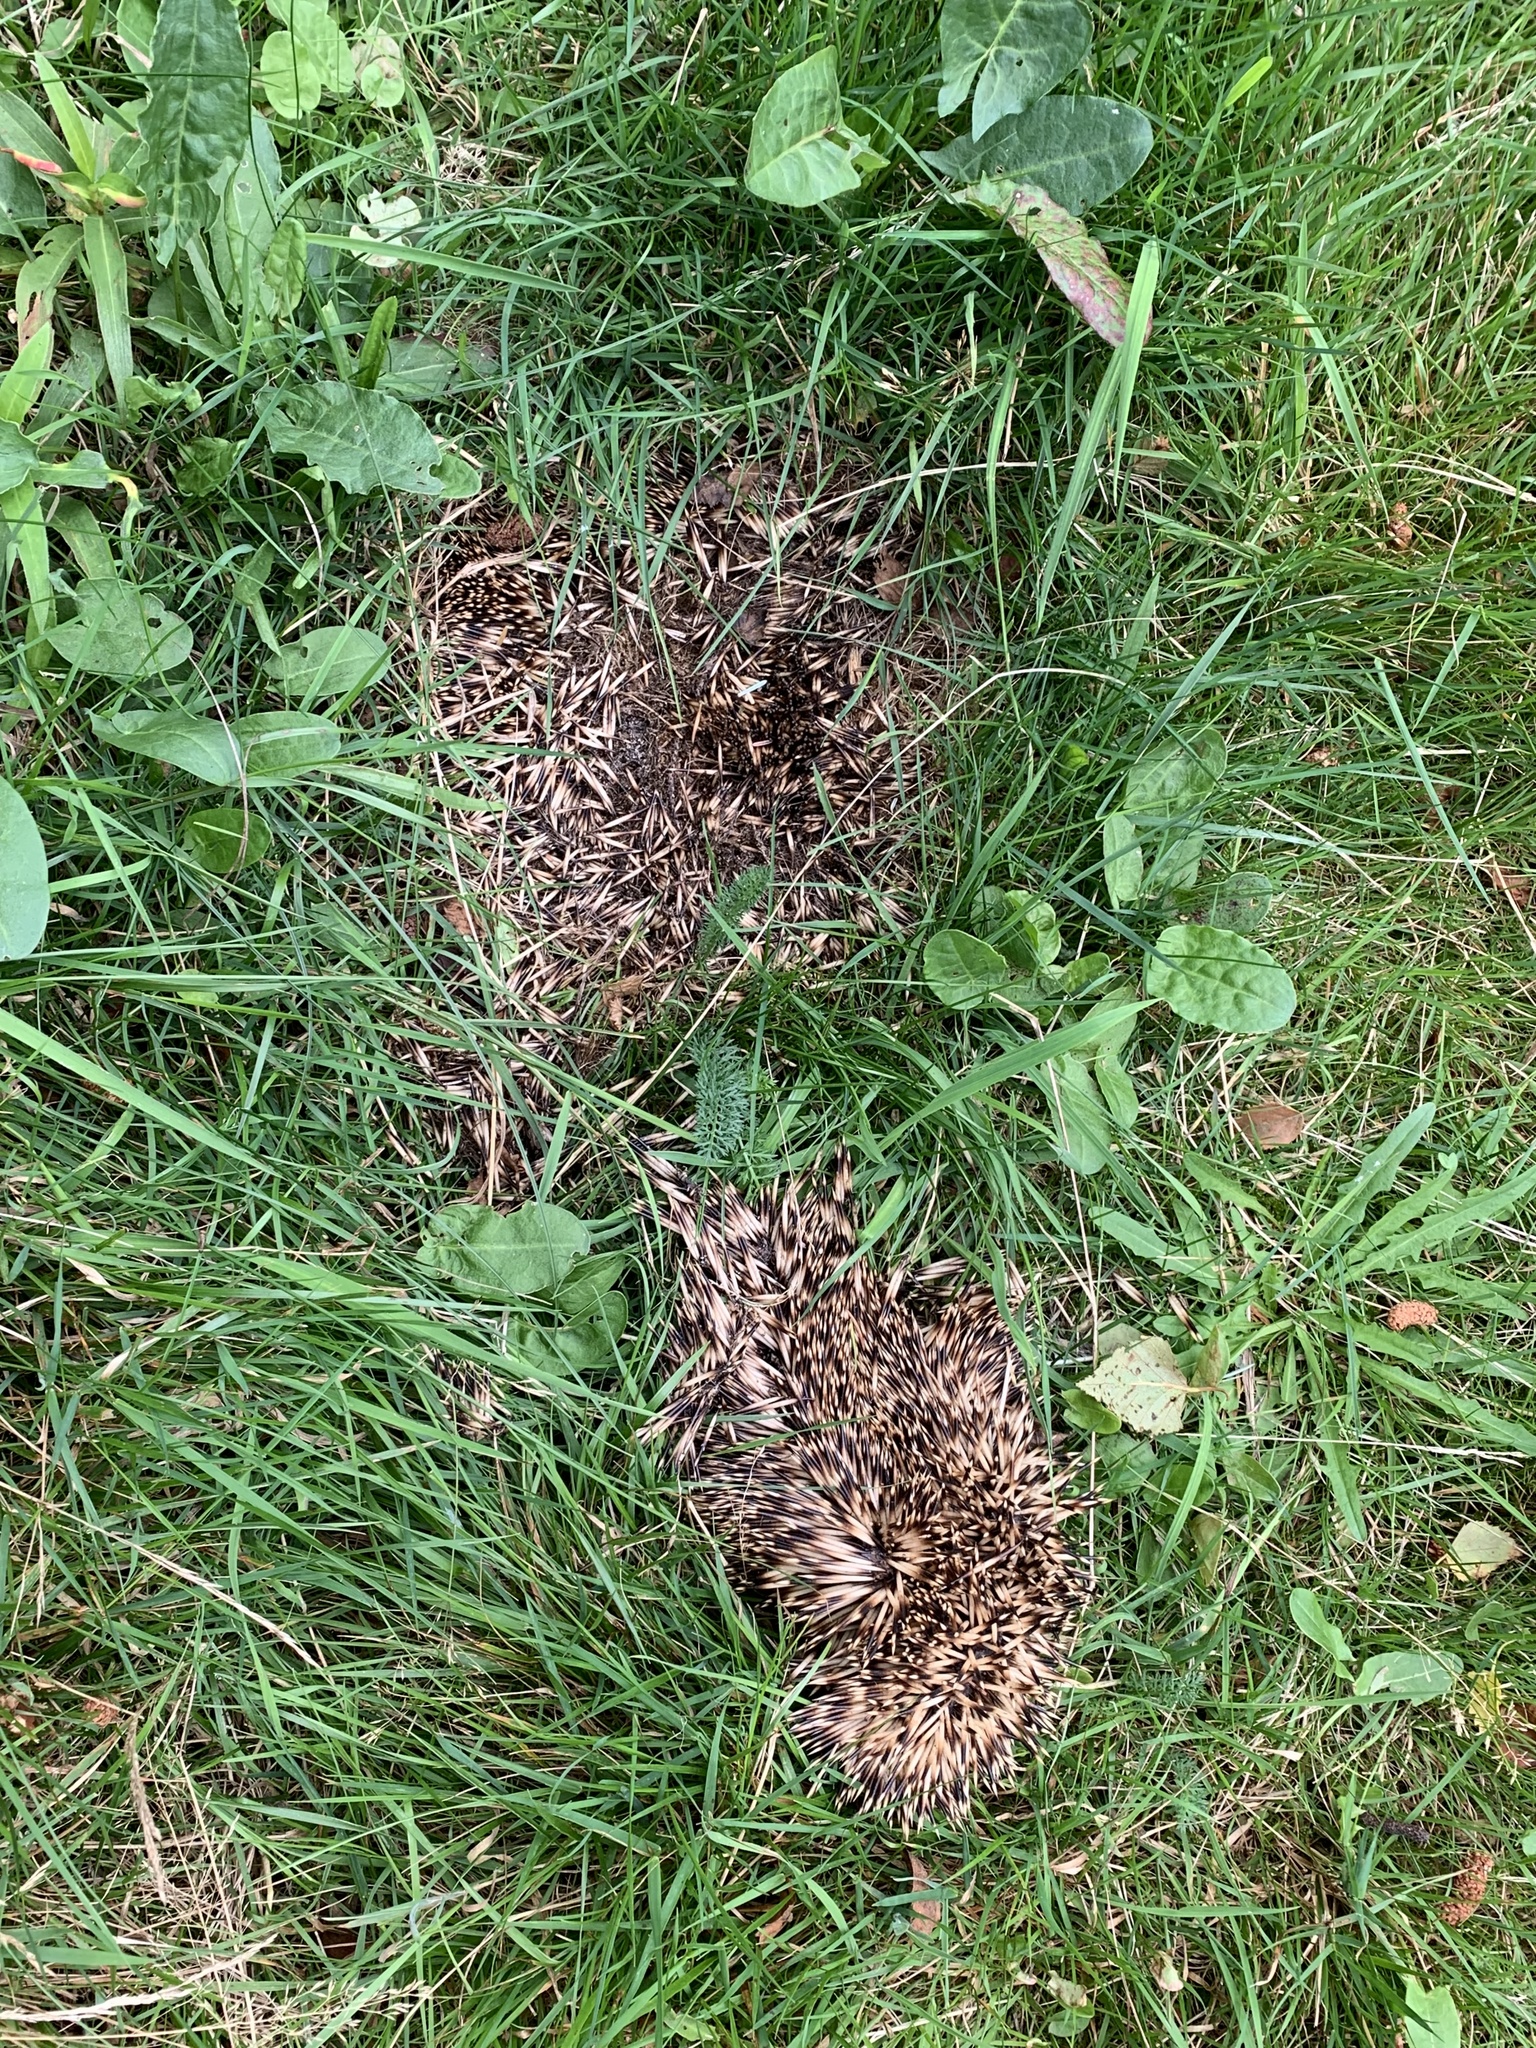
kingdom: Animalia
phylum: Chordata
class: Mammalia
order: Erinaceomorpha
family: Erinaceidae
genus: Erinaceus
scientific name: Erinaceus europaeus
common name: West european hedgehog
